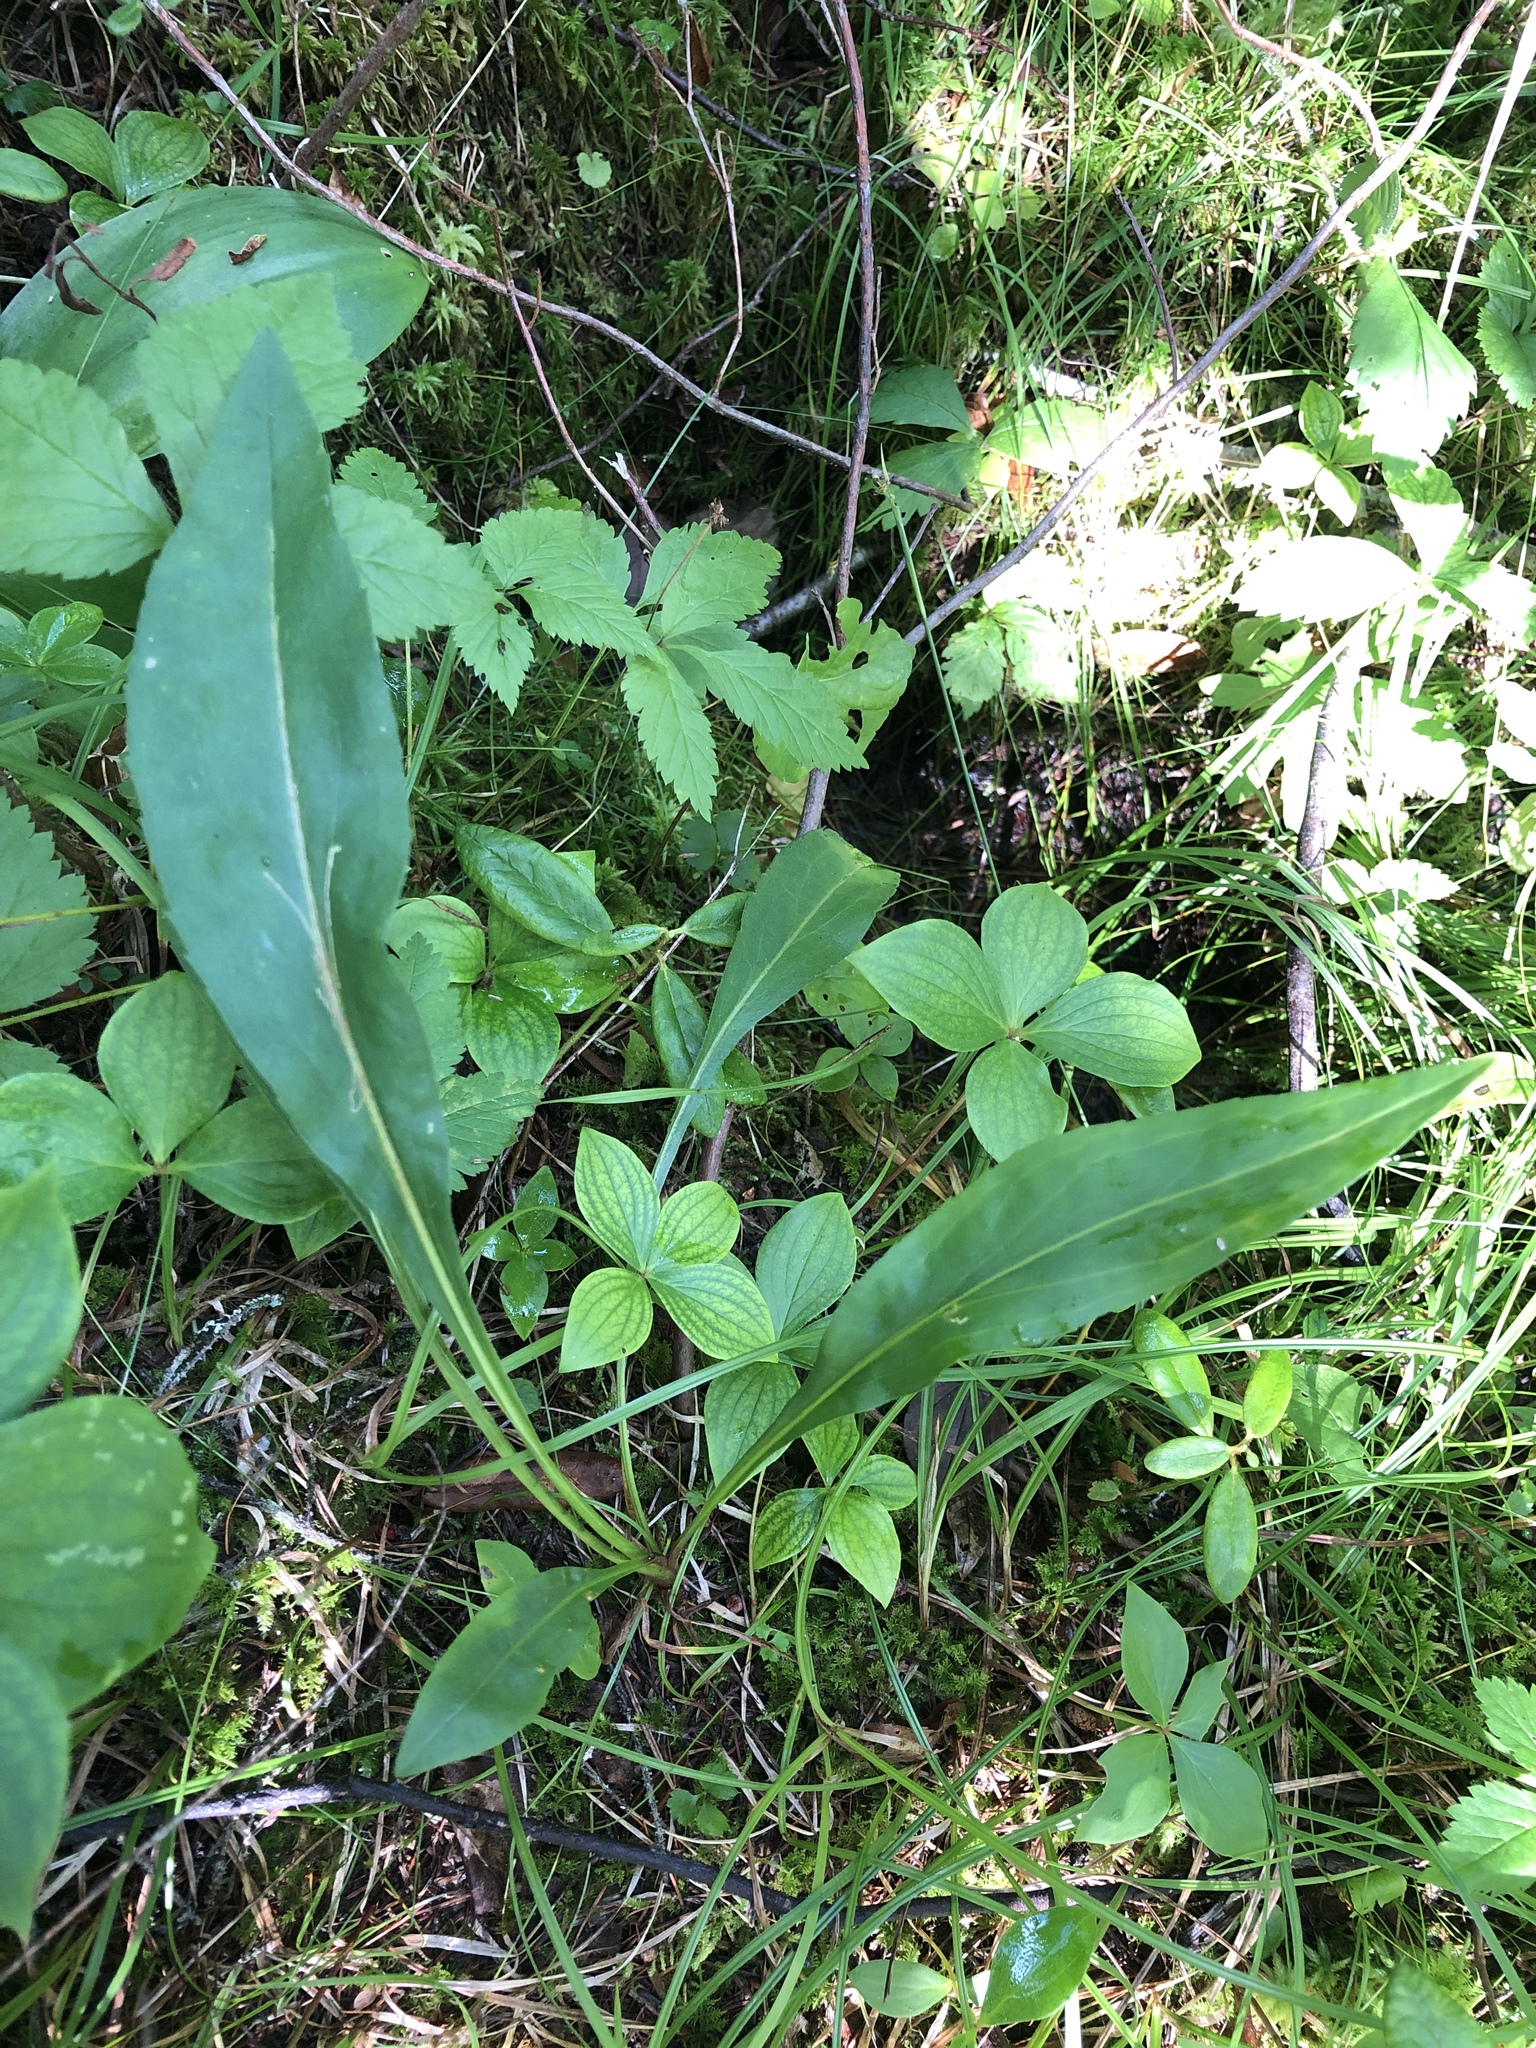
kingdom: Plantae
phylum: Tracheophyta
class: Magnoliopsida
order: Asterales
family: Asteraceae
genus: Solidago
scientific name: Solidago uliginosa
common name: Bog goldenrod
